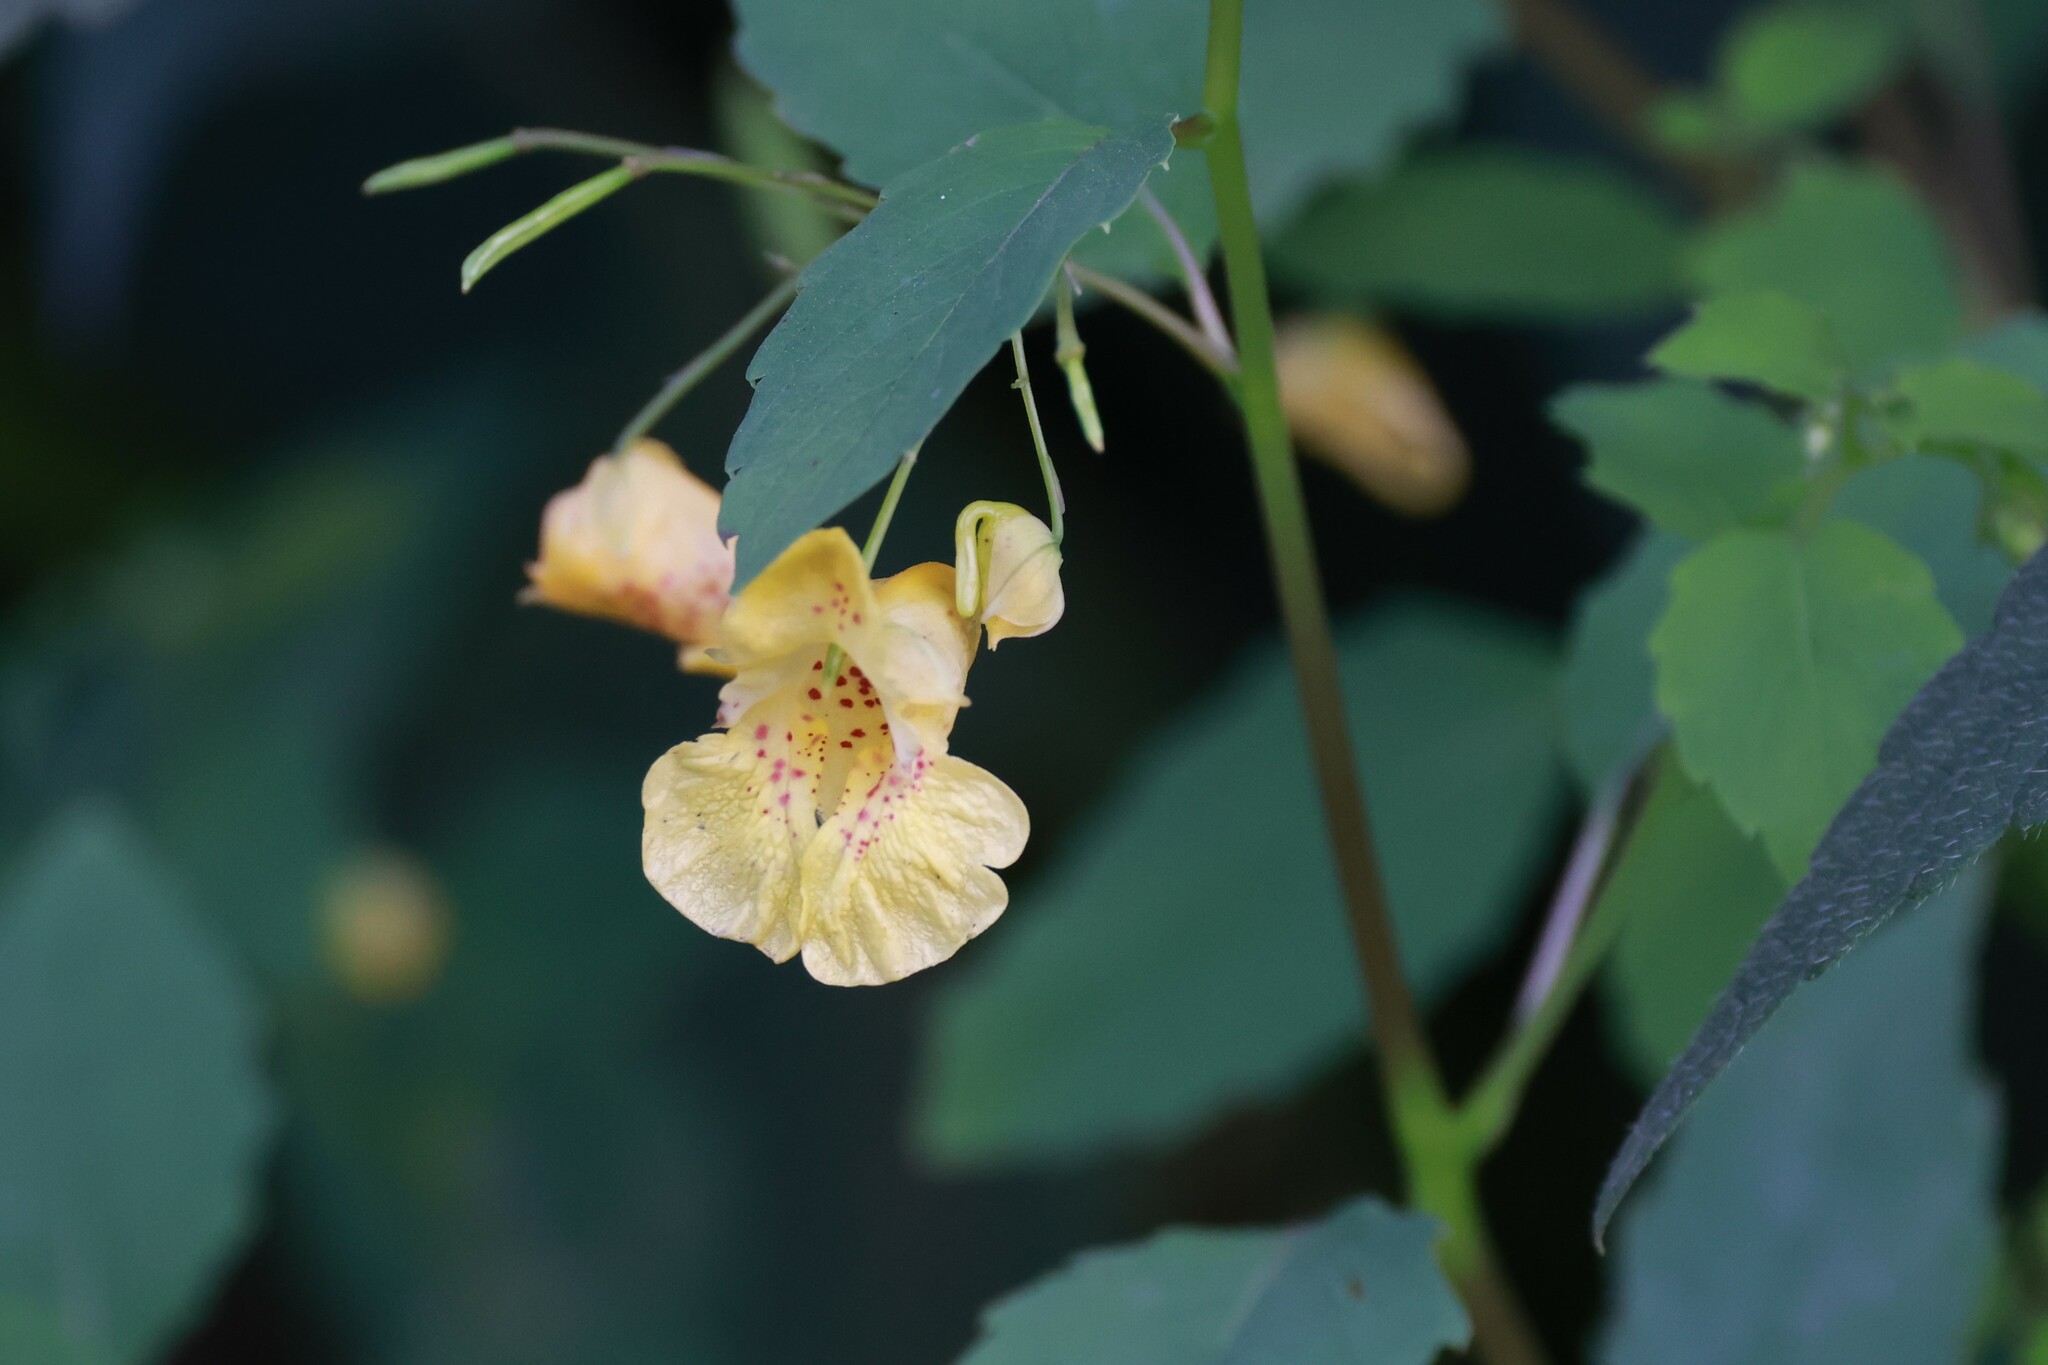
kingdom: Plantae
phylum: Tracheophyta
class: Magnoliopsida
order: Ericales
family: Balsaminaceae
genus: Impatiens
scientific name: Impatiens capensis
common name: Orange balsam
